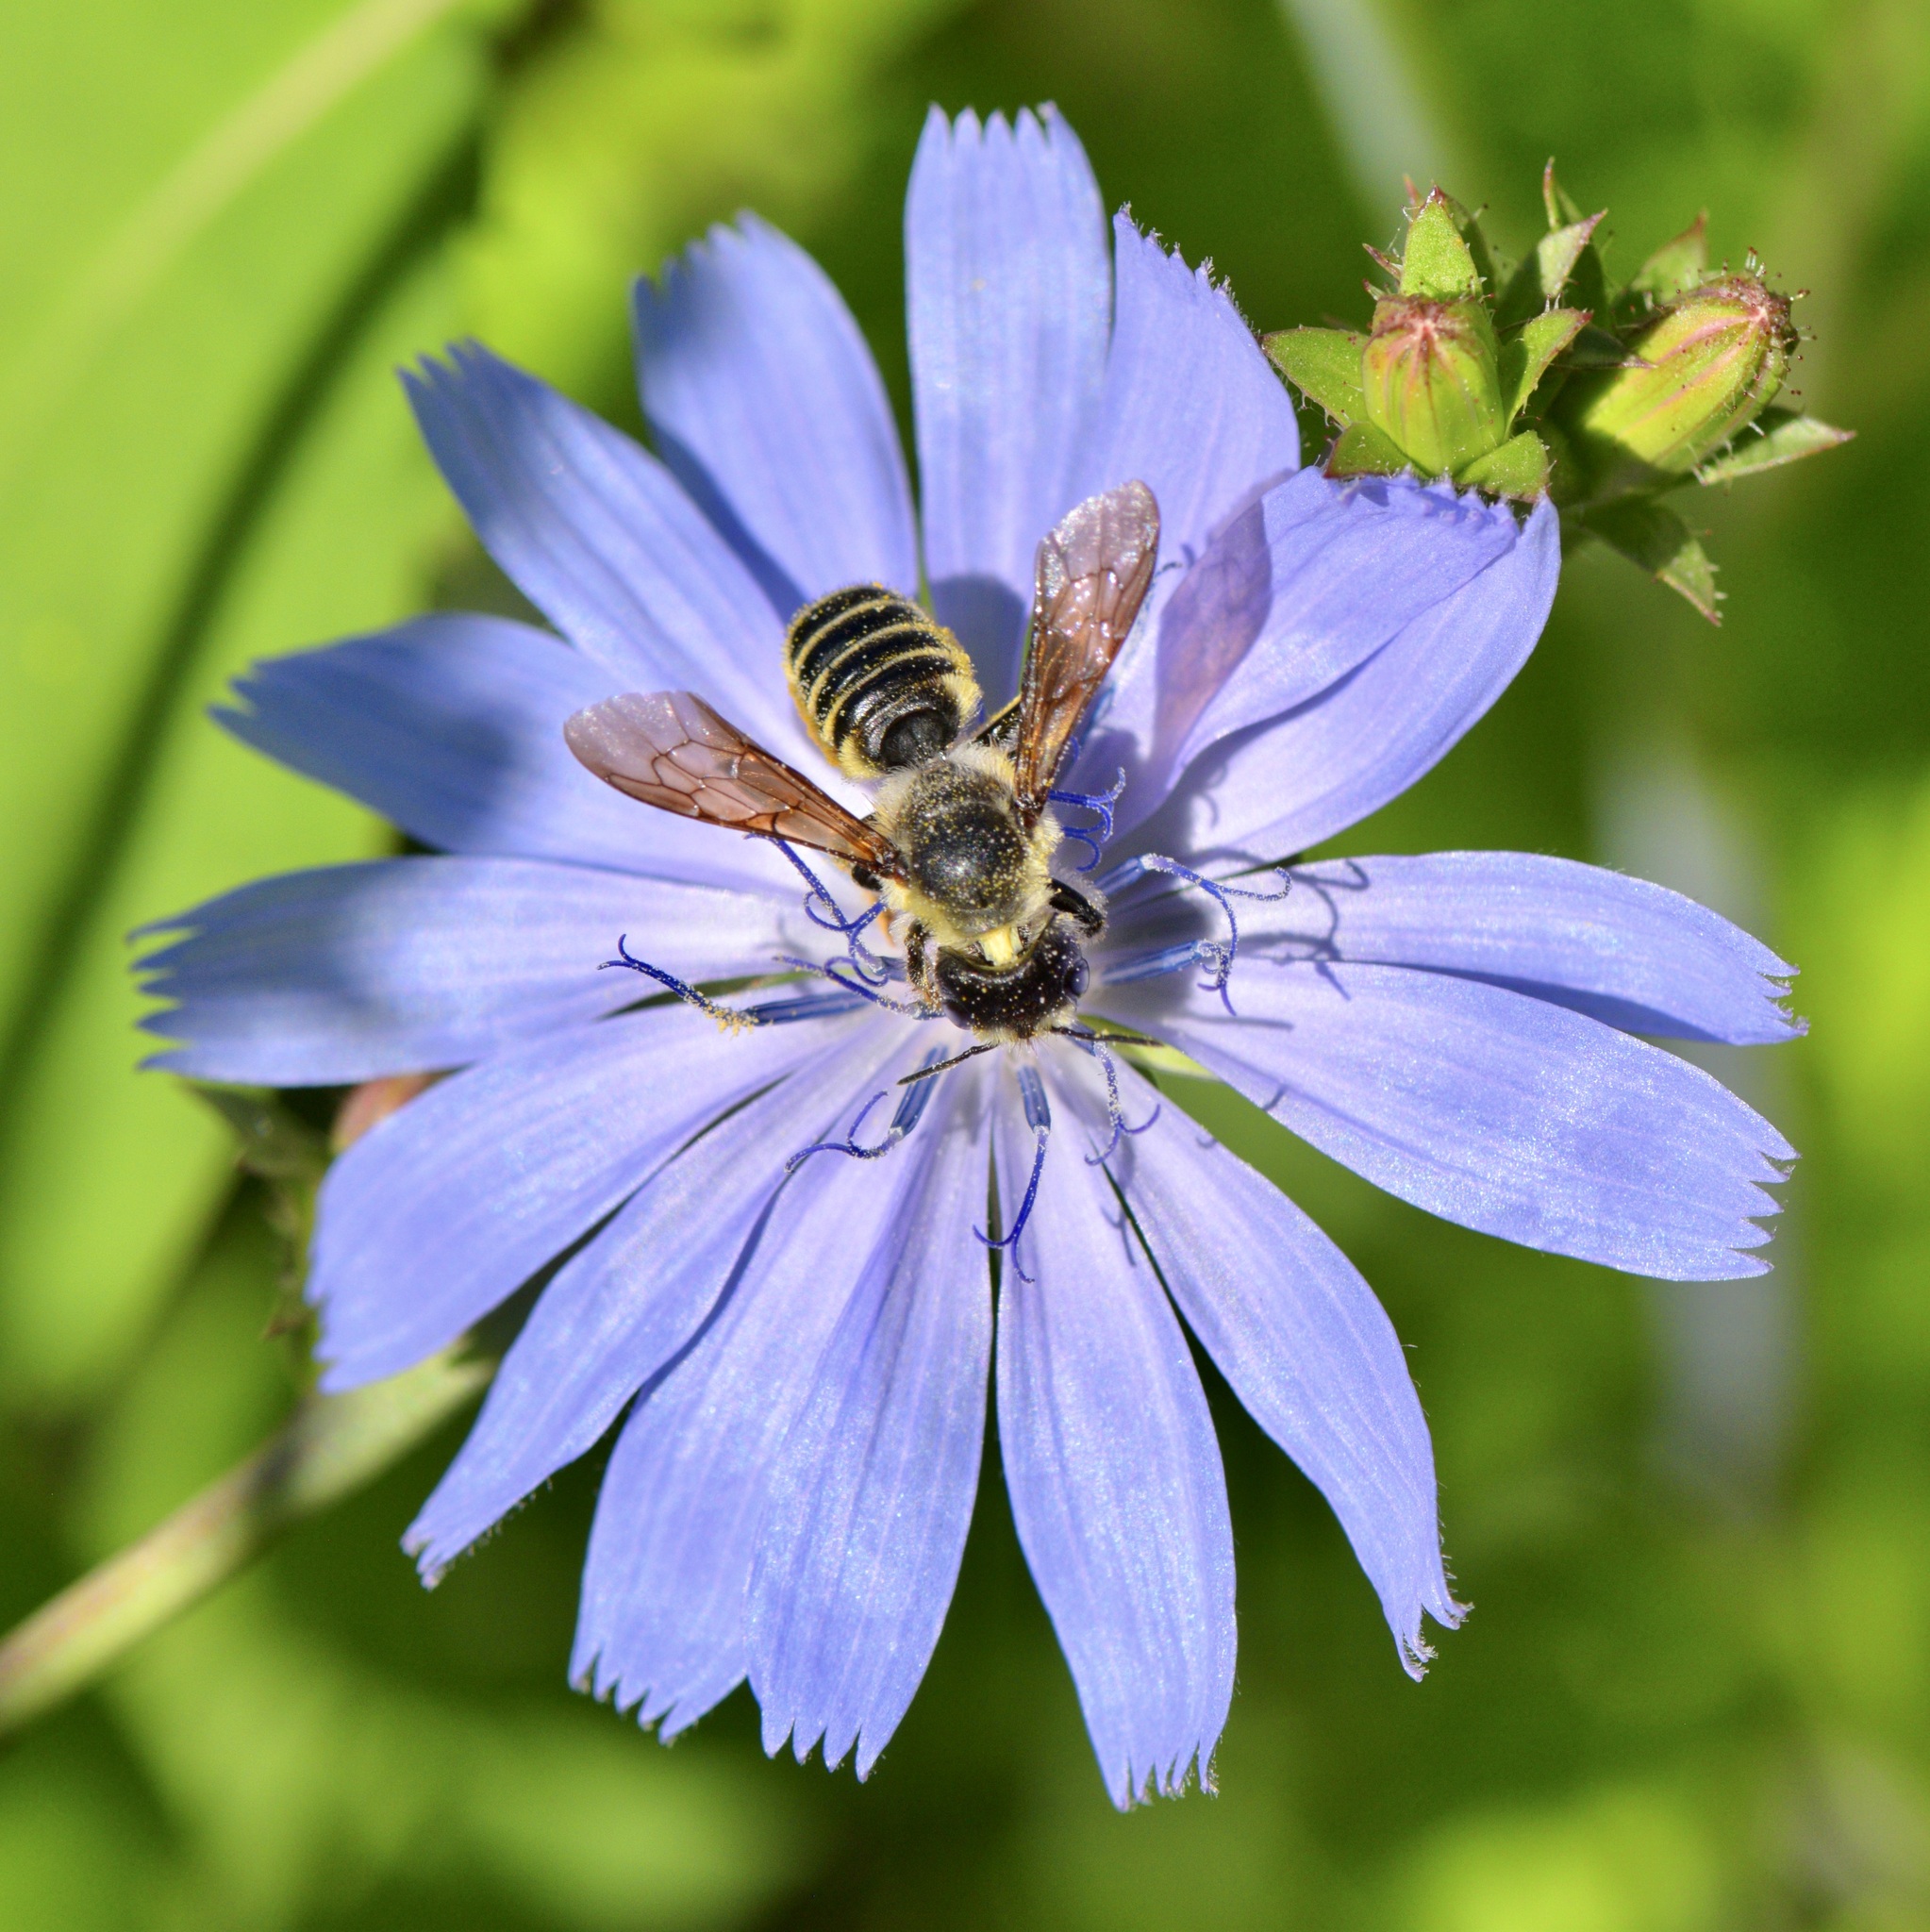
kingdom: Animalia
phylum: Arthropoda
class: Insecta
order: Hymenoptera
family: Megachilidae
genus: Megachile
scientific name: Megachile pugnata
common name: Pugnacious leafcutter bee
